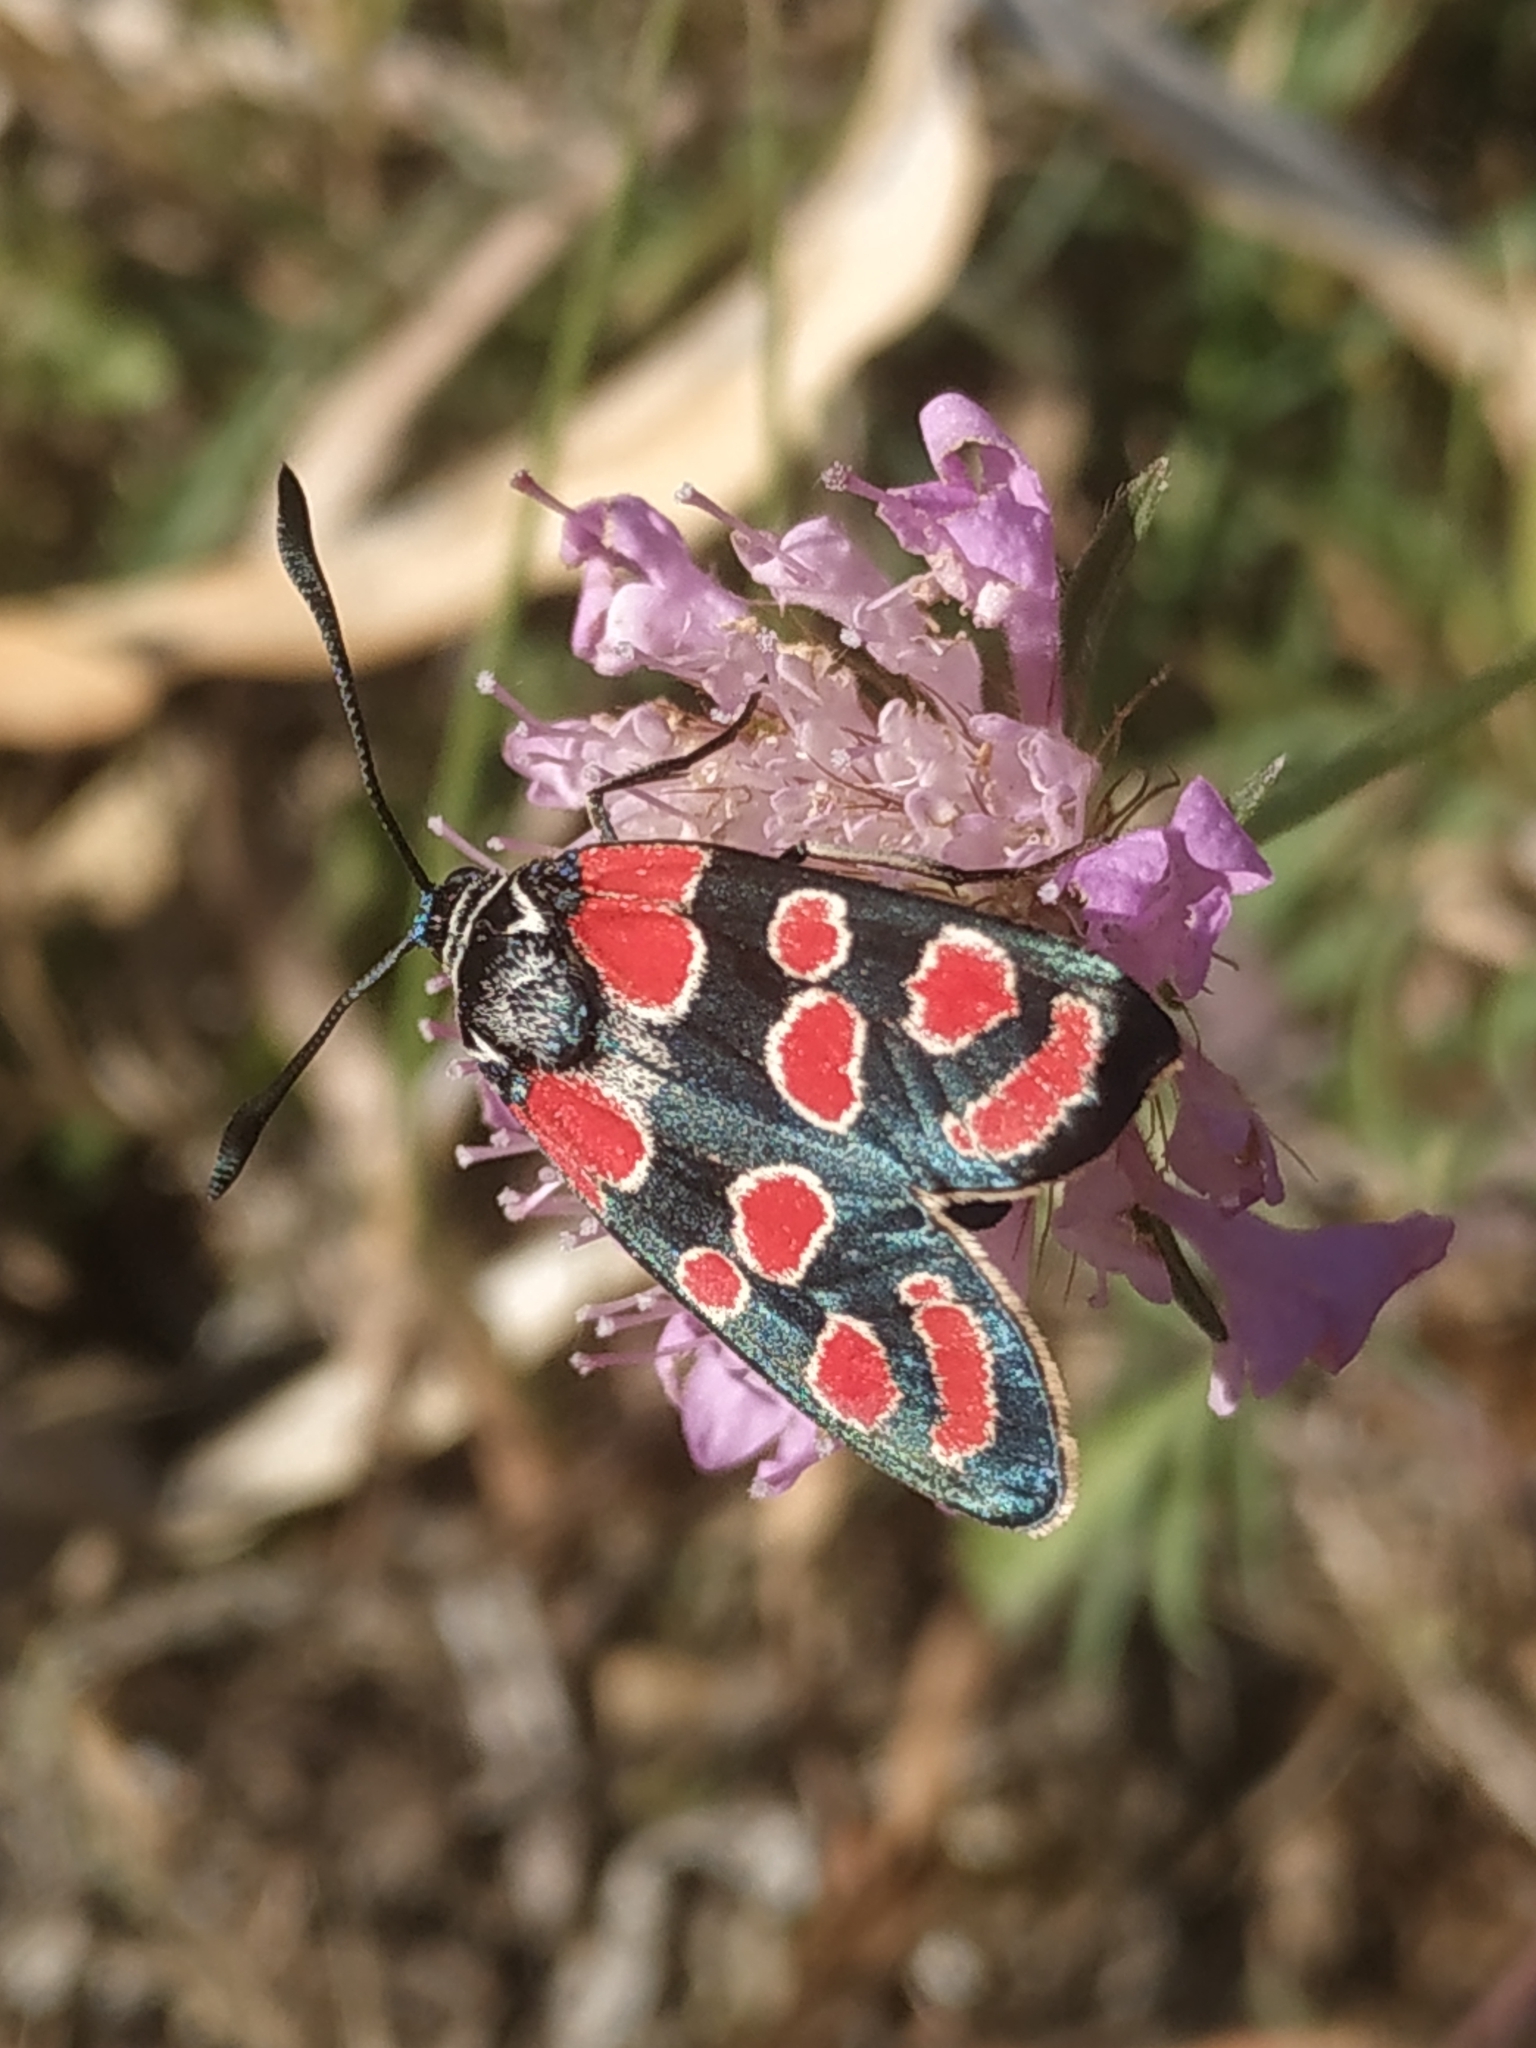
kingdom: Animalia
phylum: Arthropoda
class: Insecta
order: Lepidoptera
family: Zygaenidae
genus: Zygaena
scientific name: Zygaena carniolica
